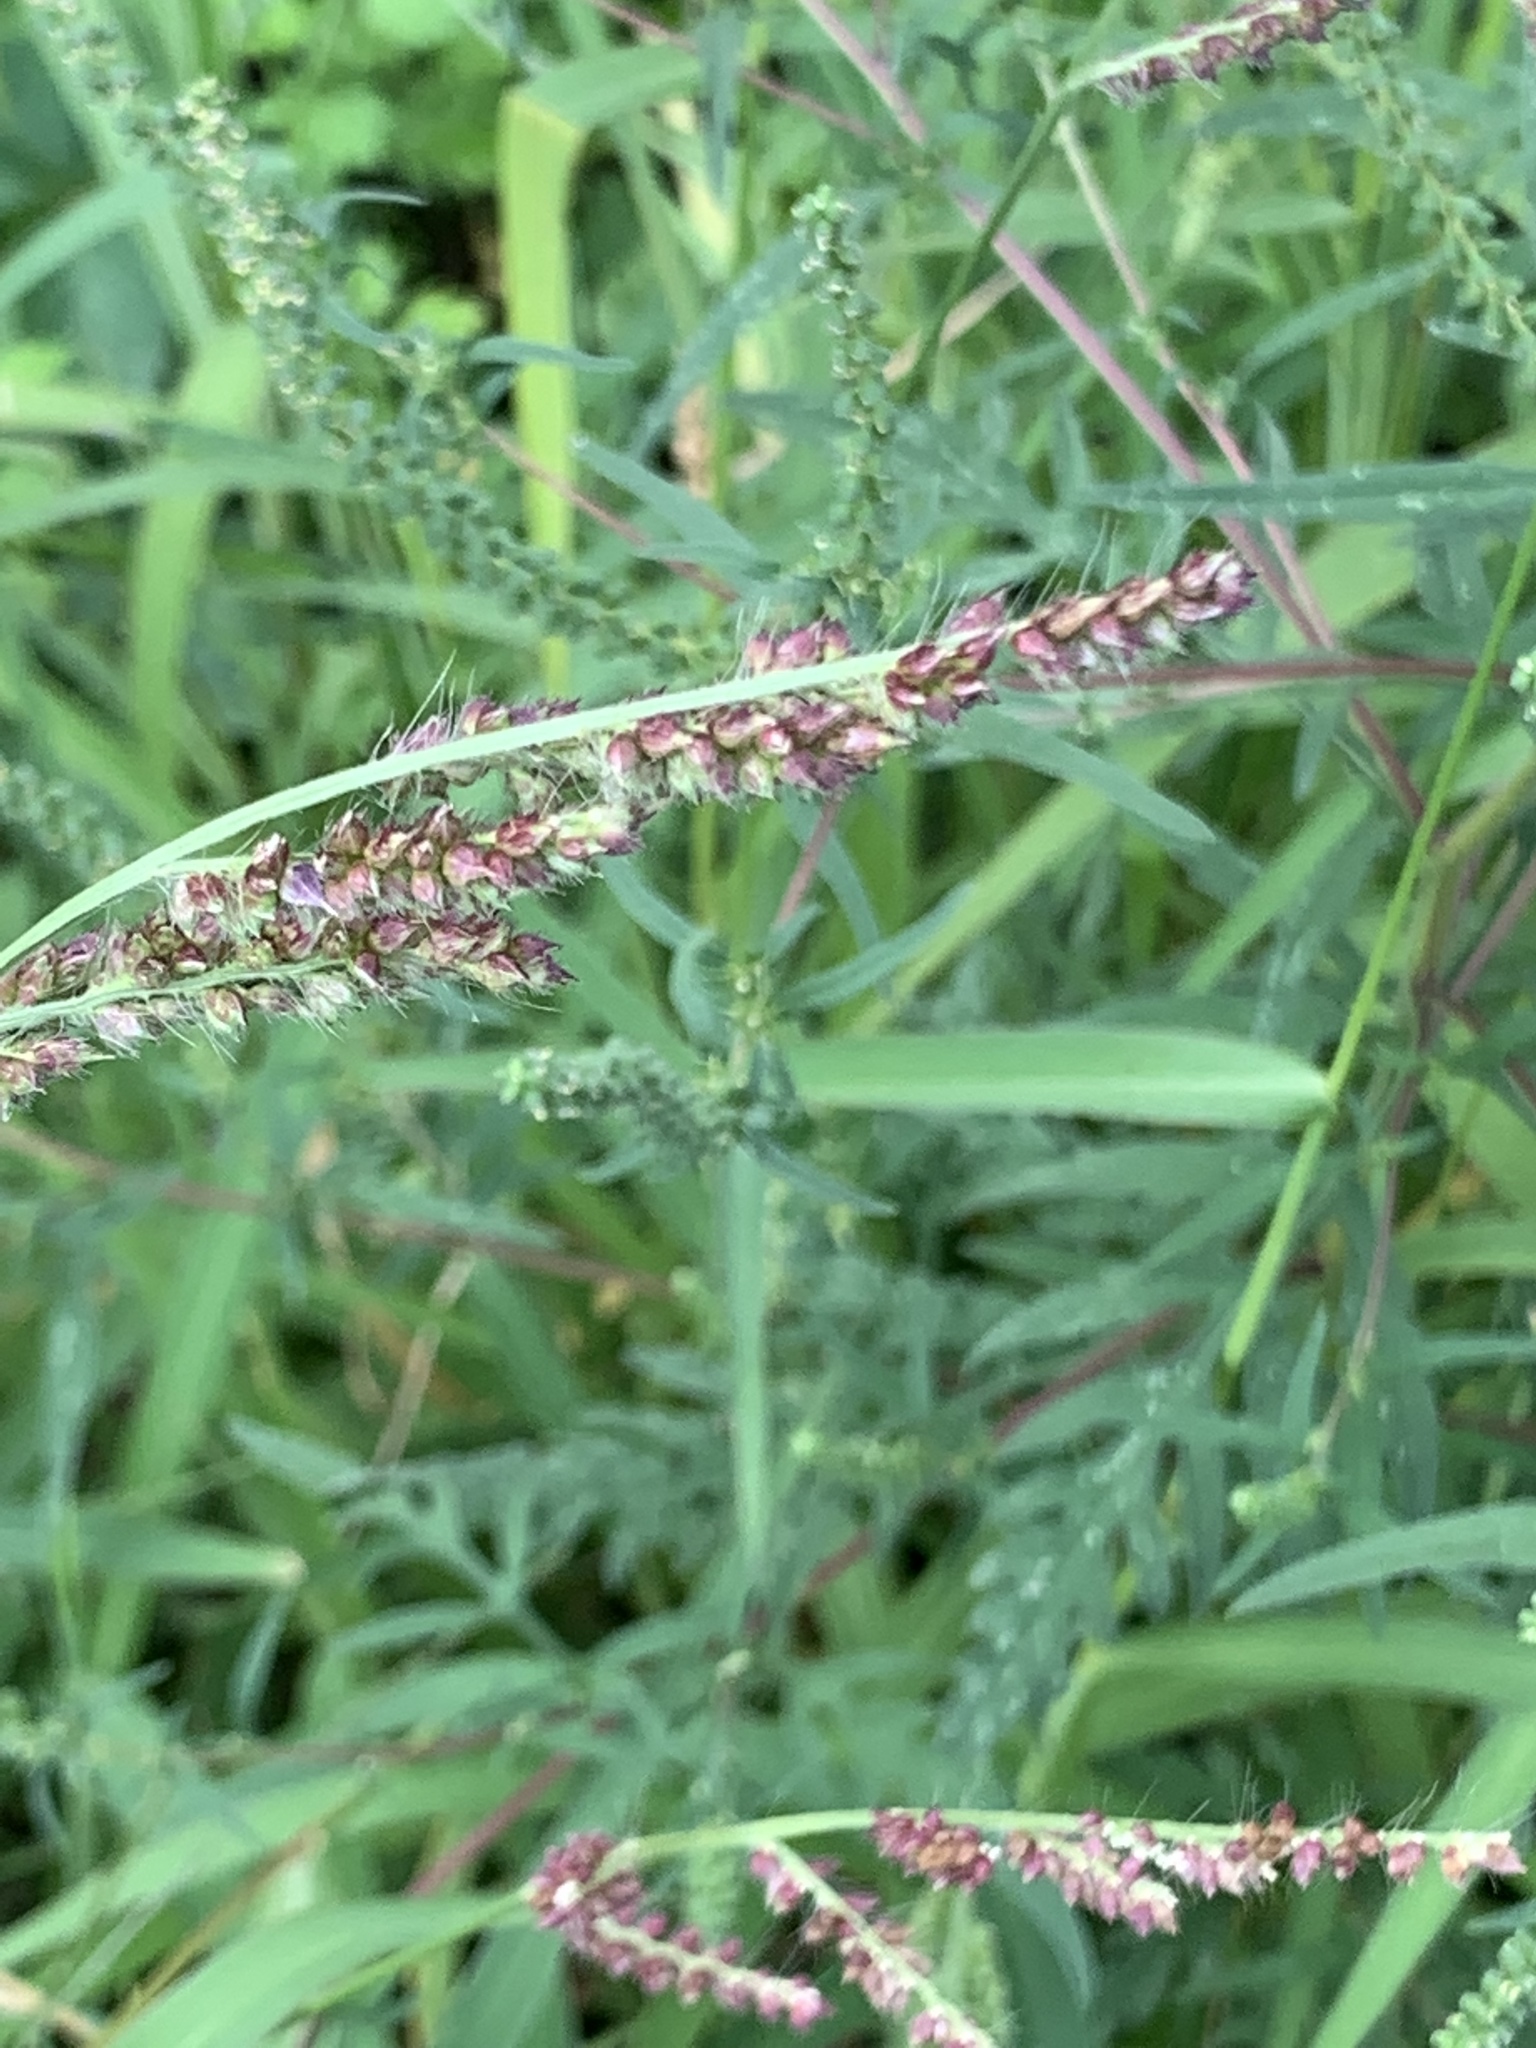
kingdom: Plantae
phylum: Tracheophyta
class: Liliopsida
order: Poales
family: Poaceae
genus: Echinochloa
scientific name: Echinochloa crus-galli
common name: Cockspur
